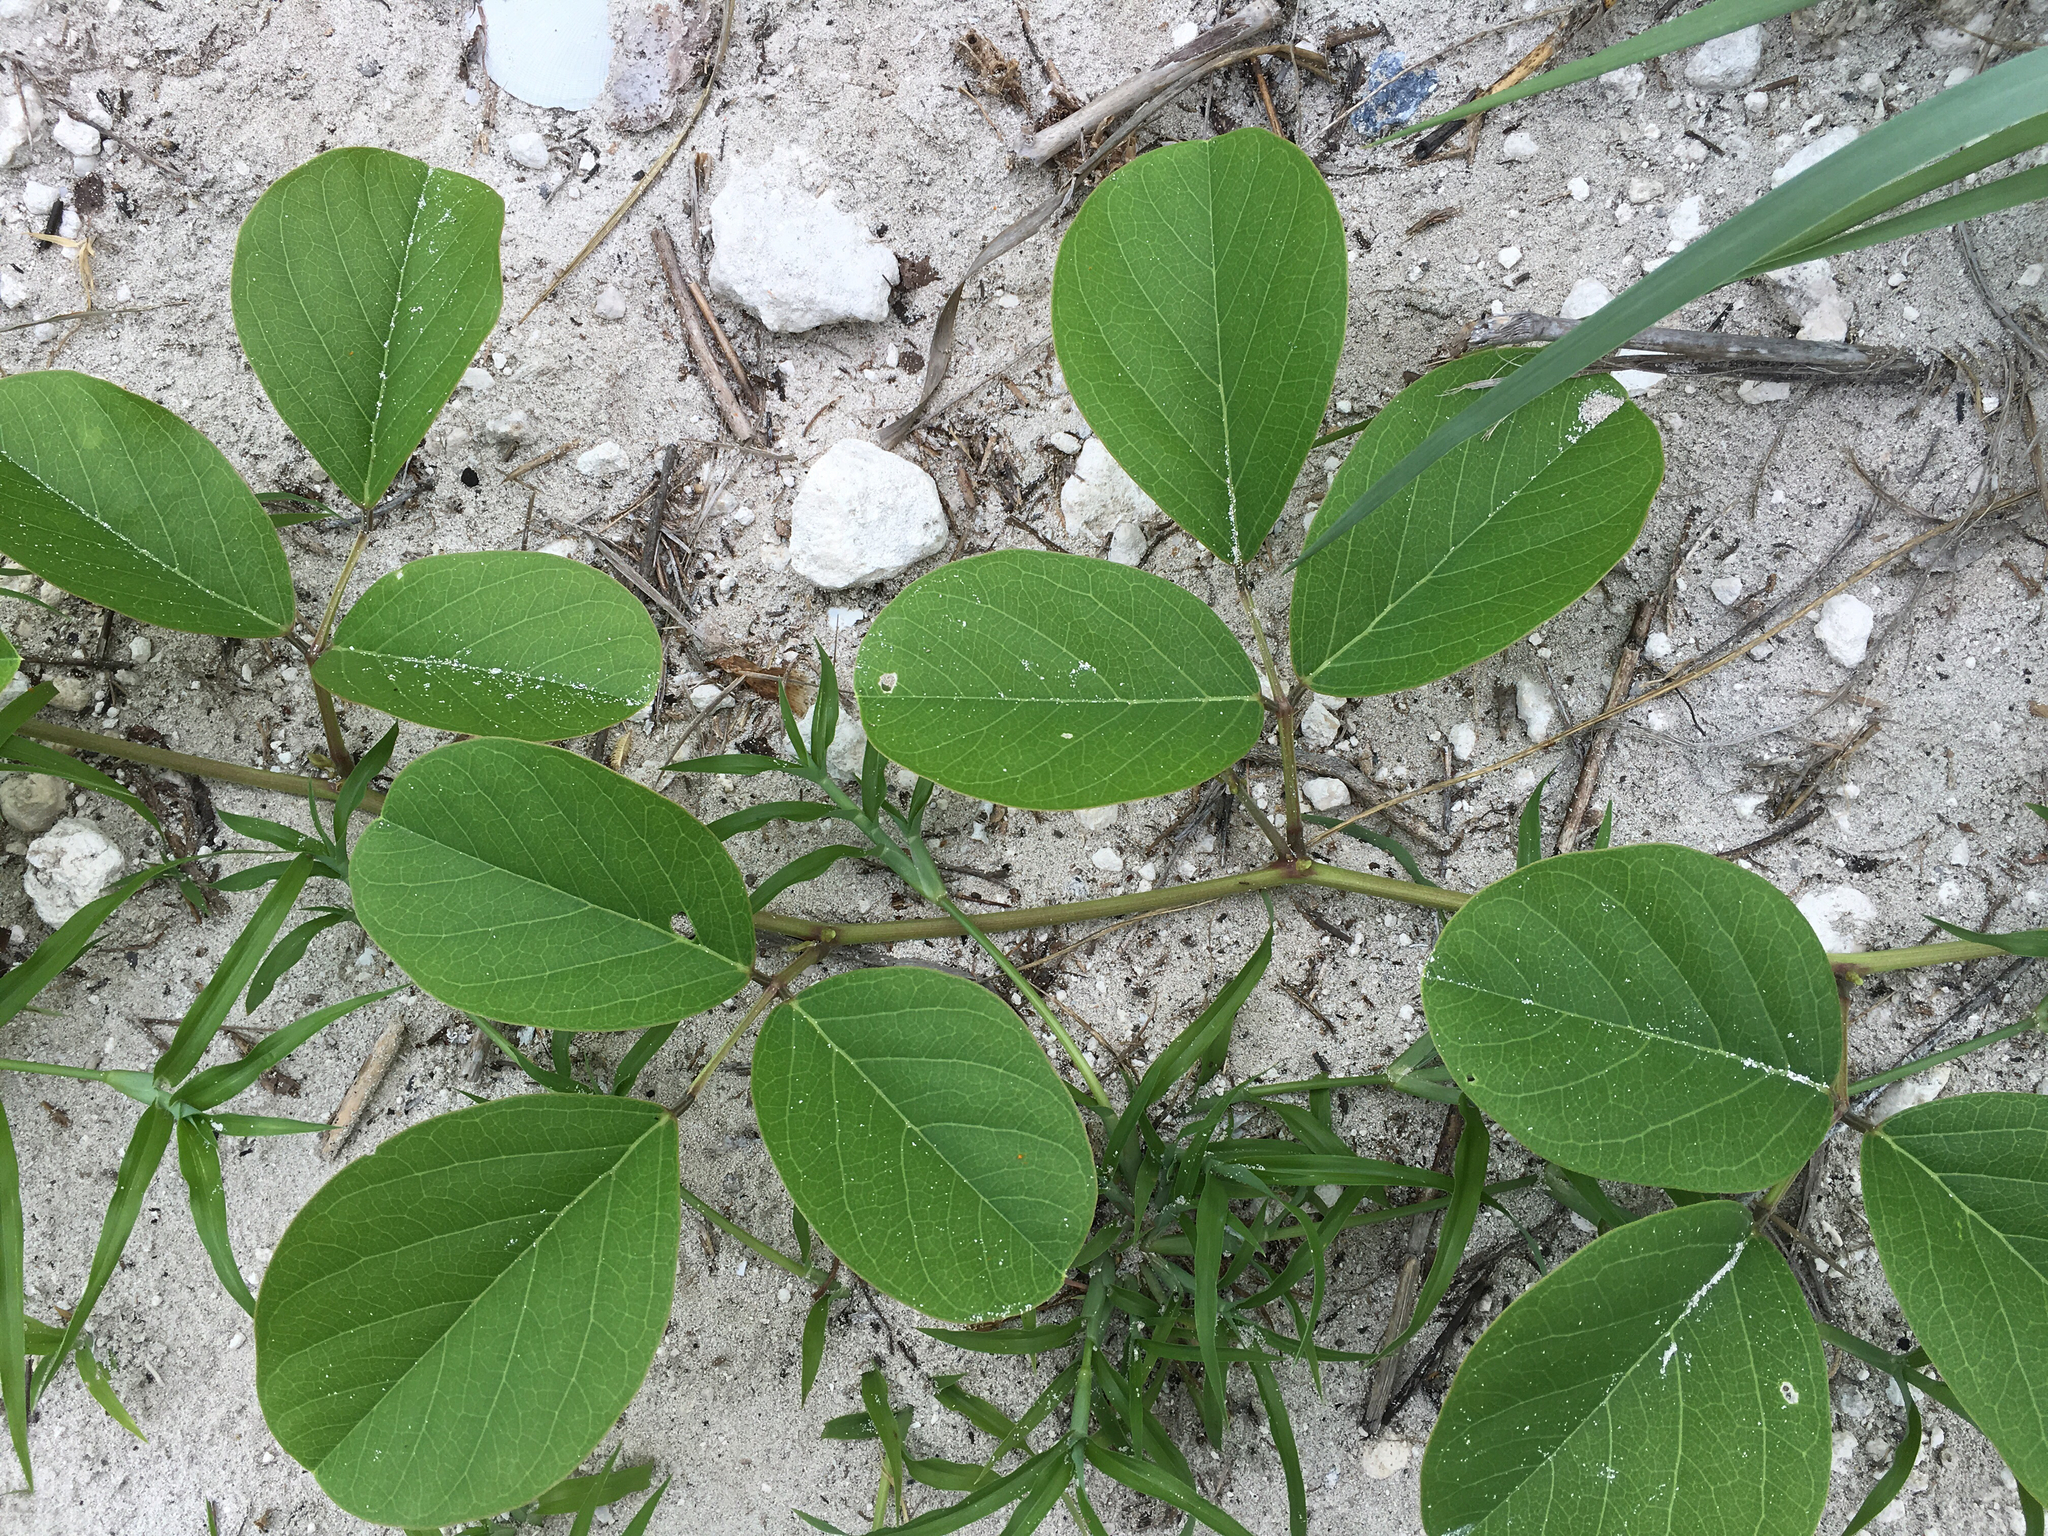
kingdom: Plantae
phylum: Tracheophyta
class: Magnoliopsida
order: Fabales
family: Fabaceae
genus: Canavalia
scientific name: Canavalia rosea
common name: Beach-bean
